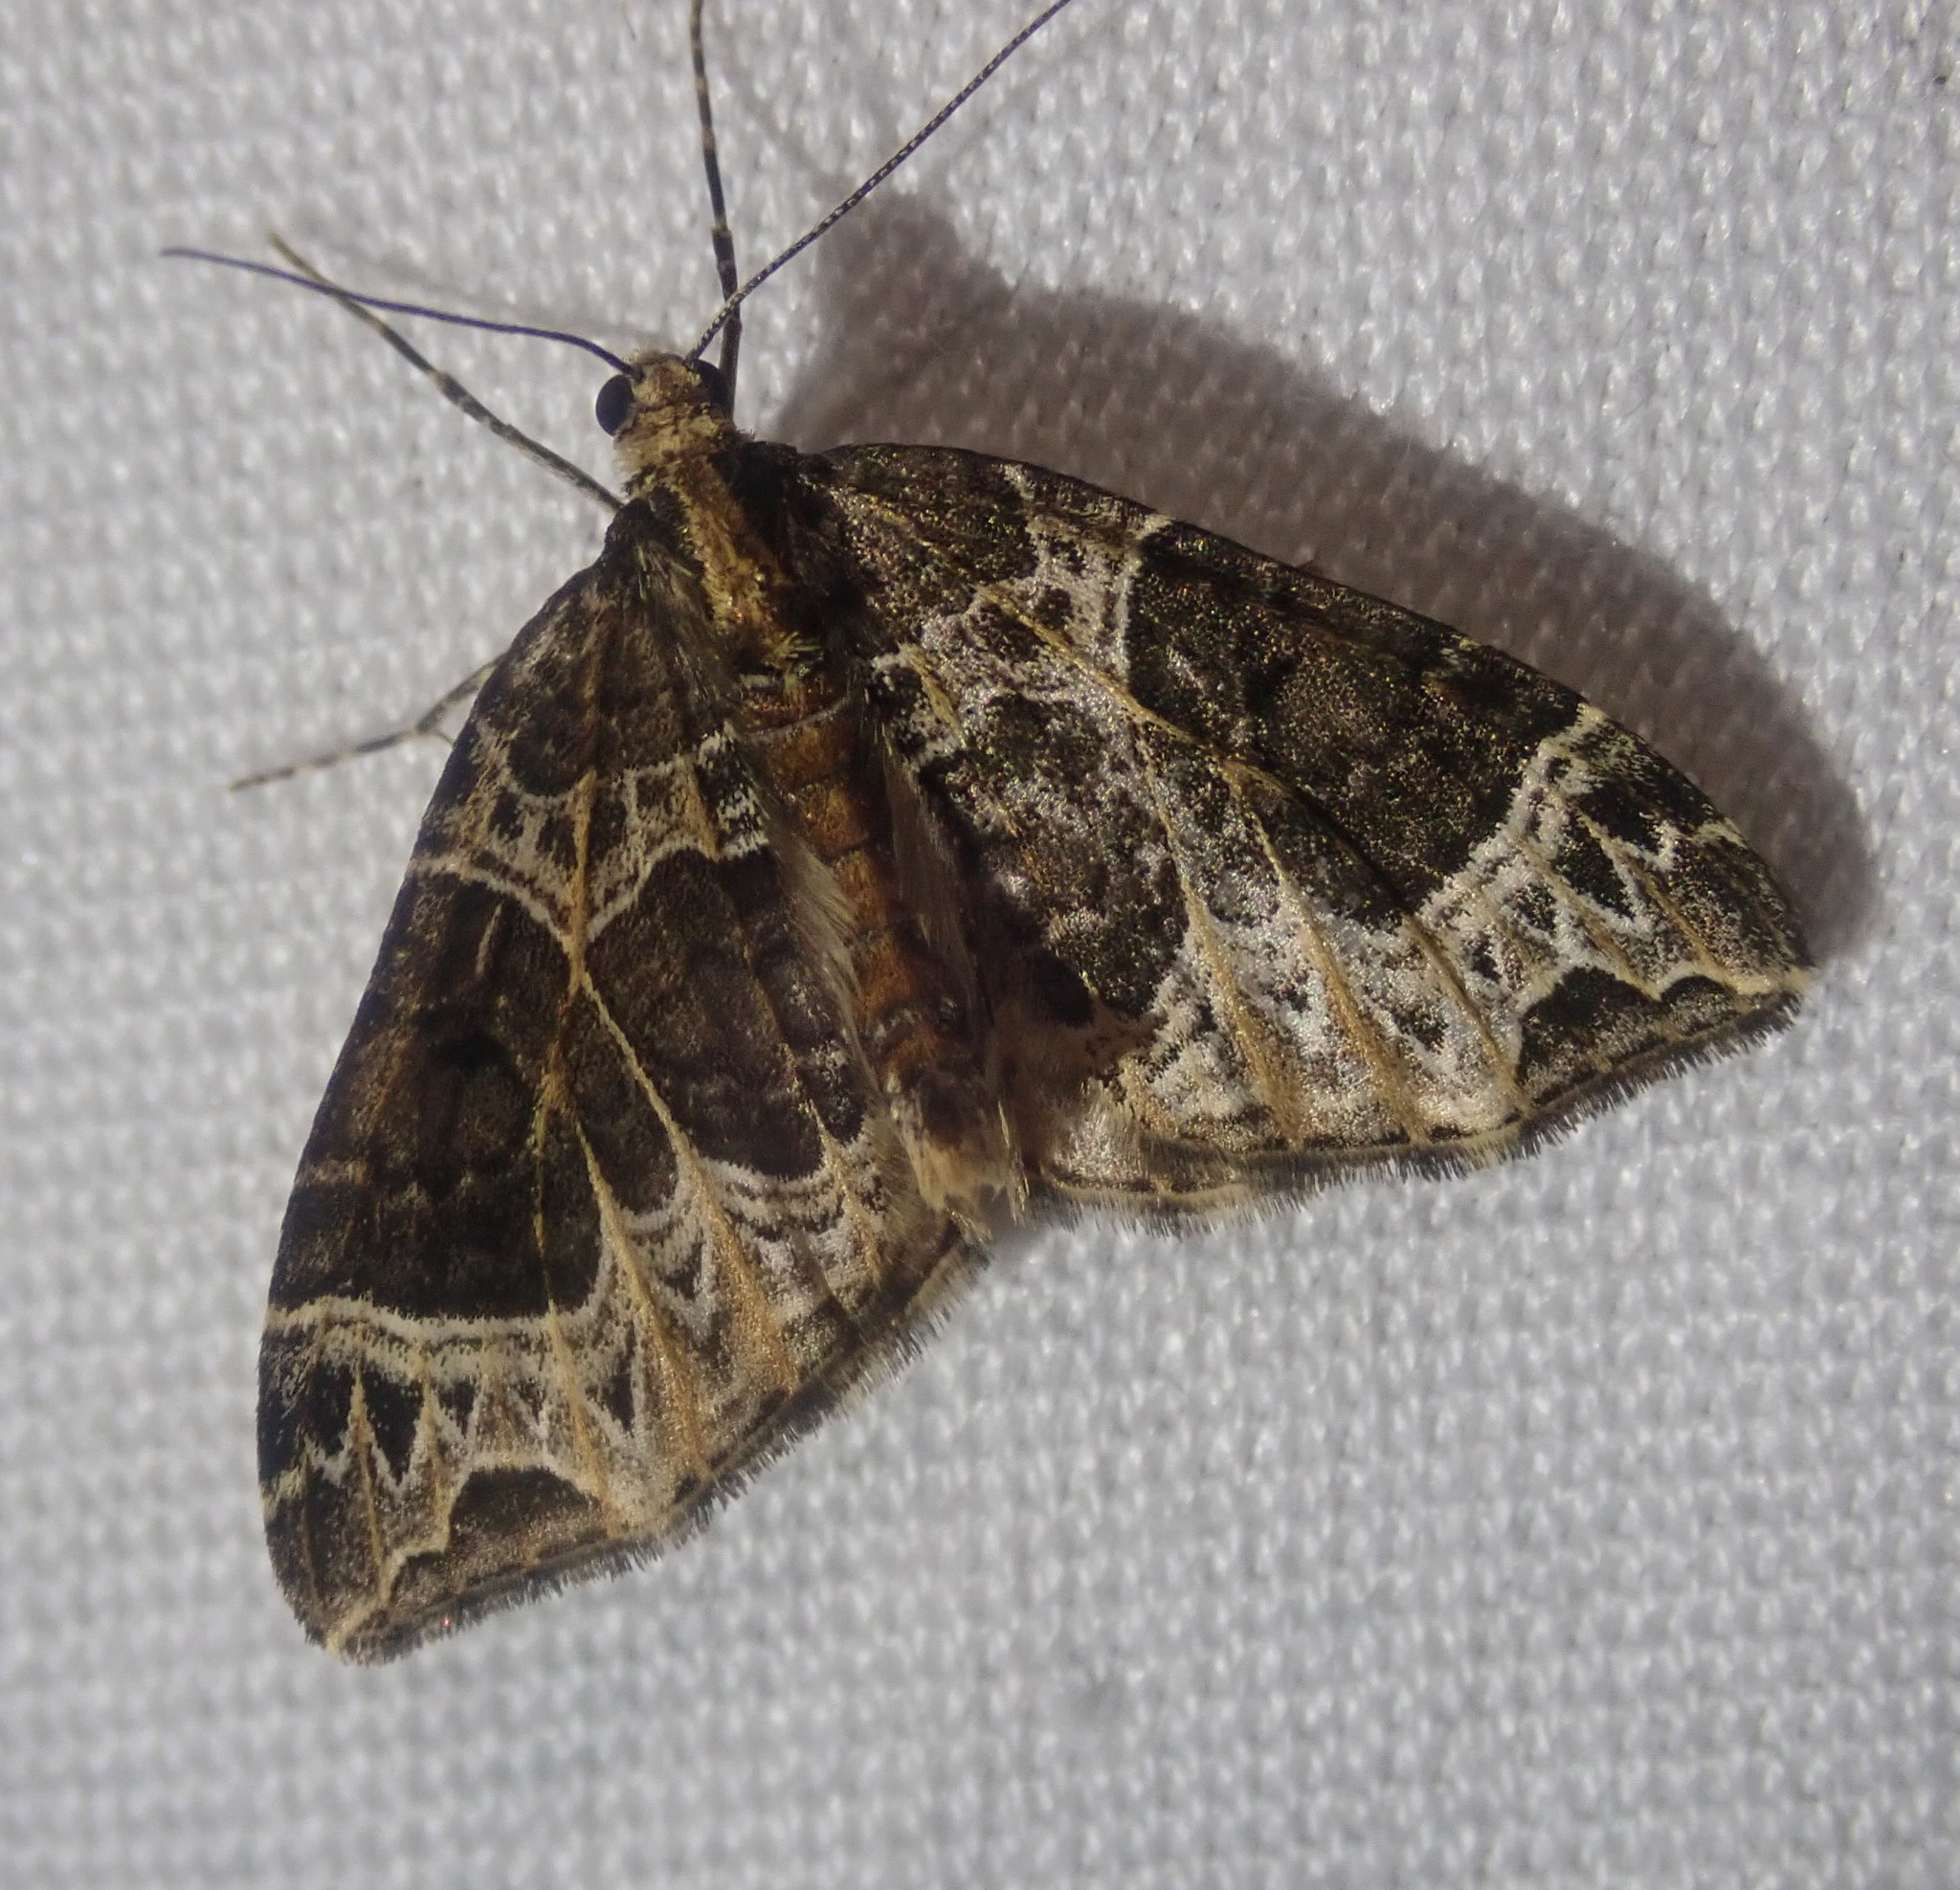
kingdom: Animalia
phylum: Arthropoda
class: Insecta
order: Lepidoptera
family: Geometridae
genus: Ecliptopera
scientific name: Ecliptopera silaceata
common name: Small phoenix
